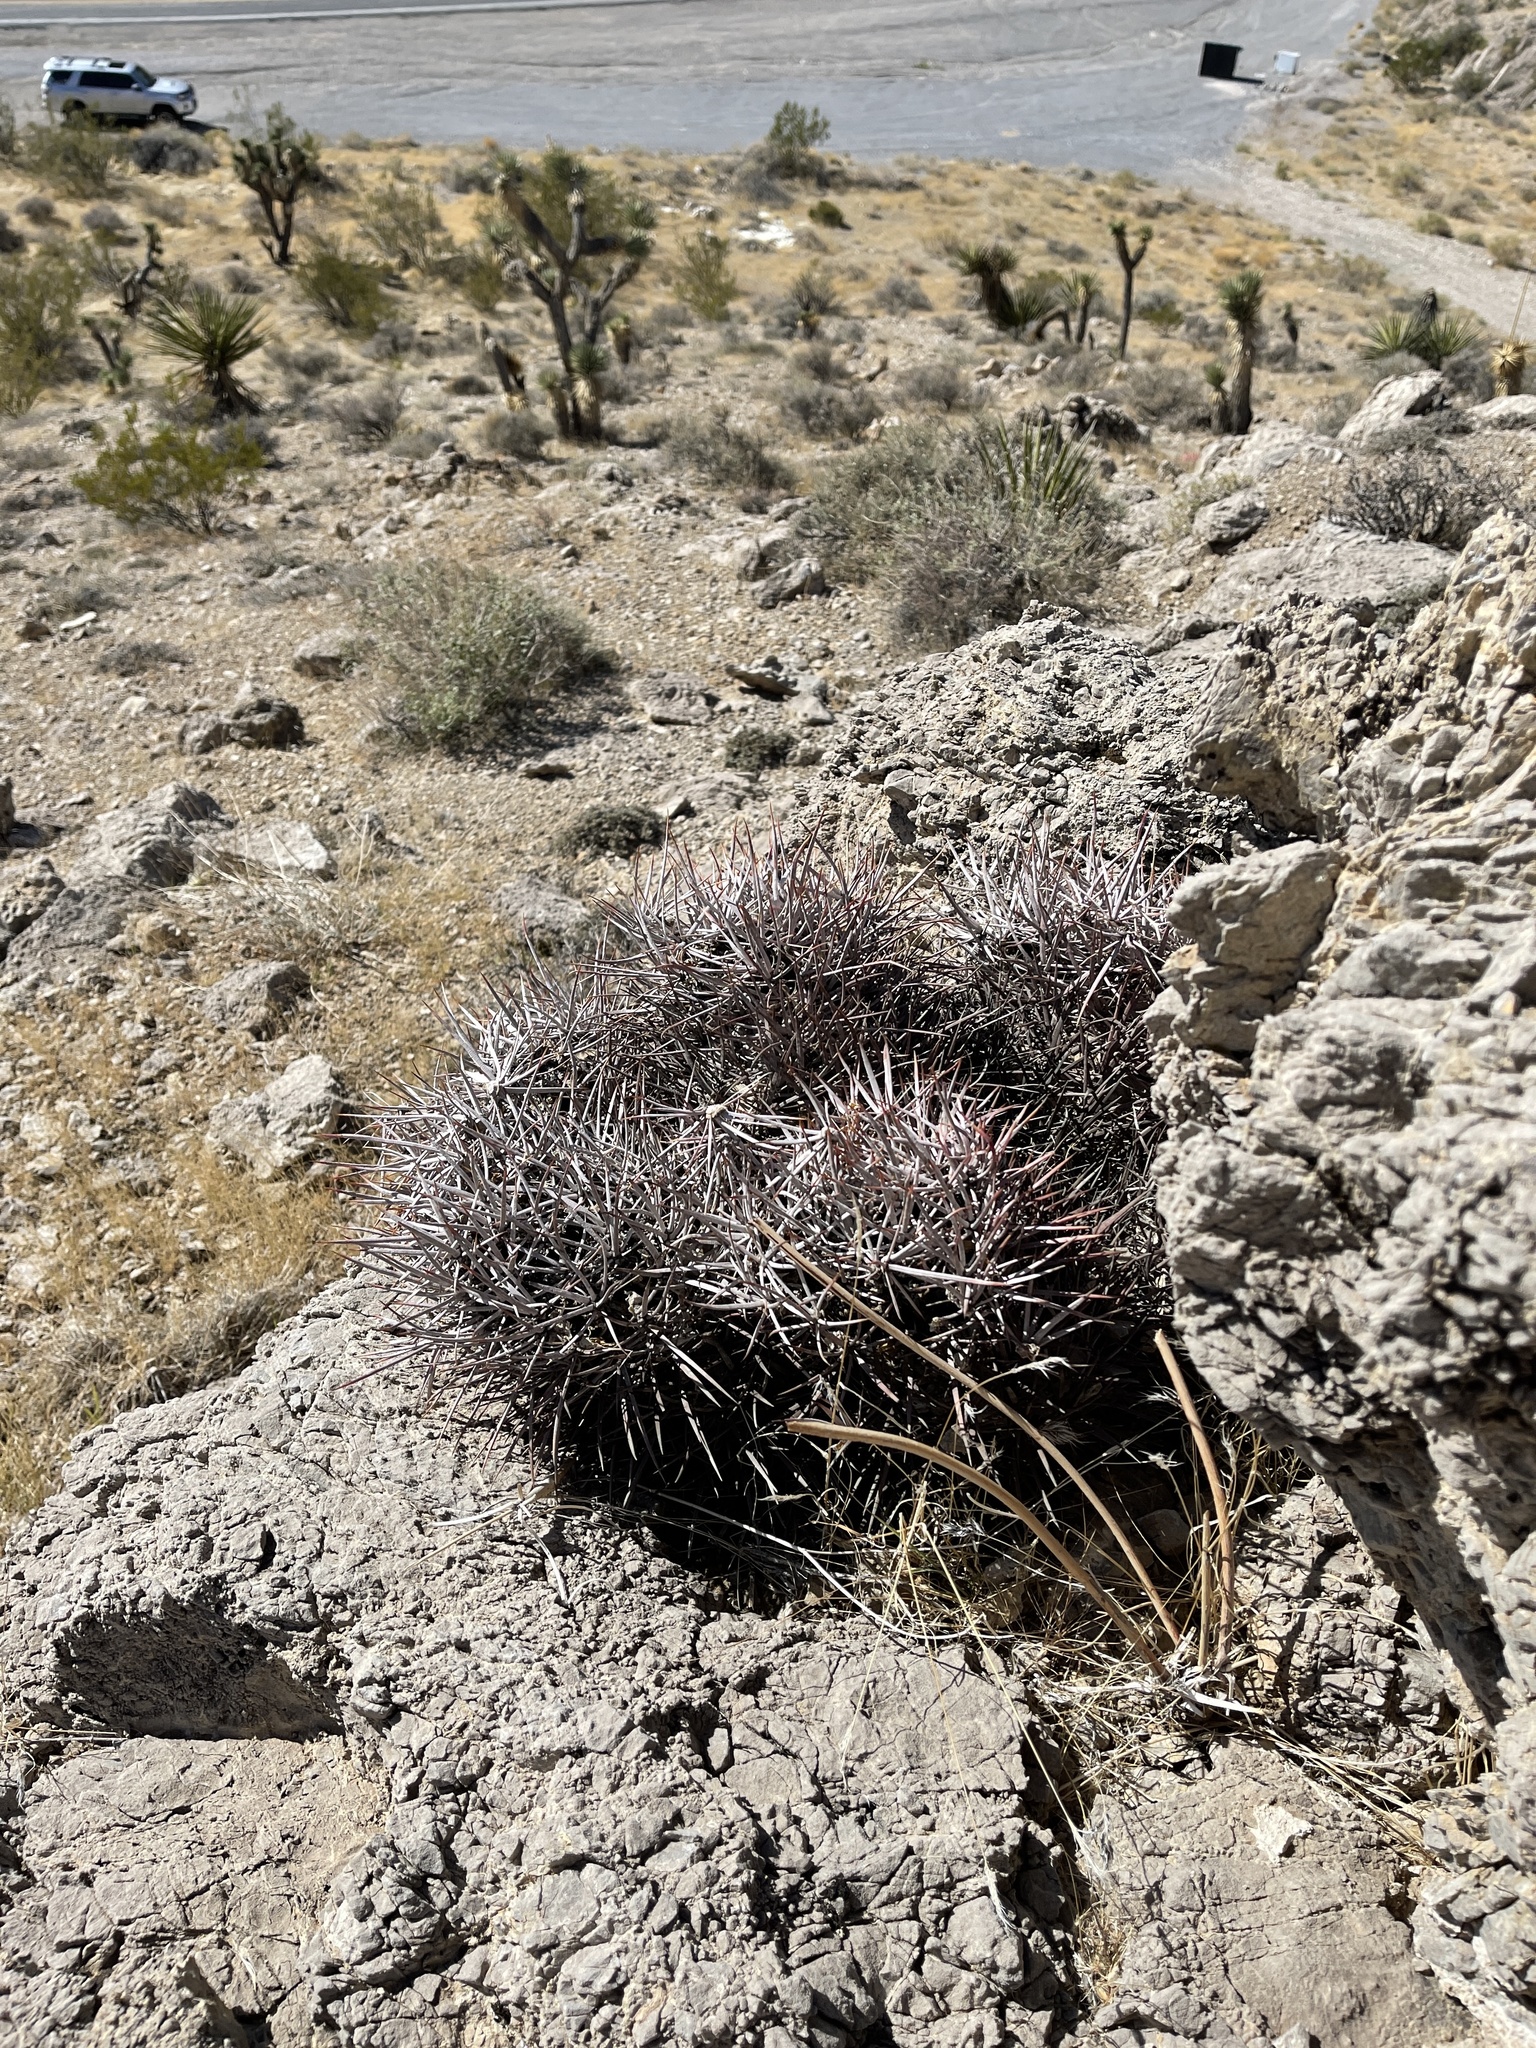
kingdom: Plantae
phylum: Tracheophyta
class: Magnoliopsida
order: Caryophyllales
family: Cactaceae
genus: Echinocactus
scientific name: Echinocactus polycephalus
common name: Cottontop cactus
